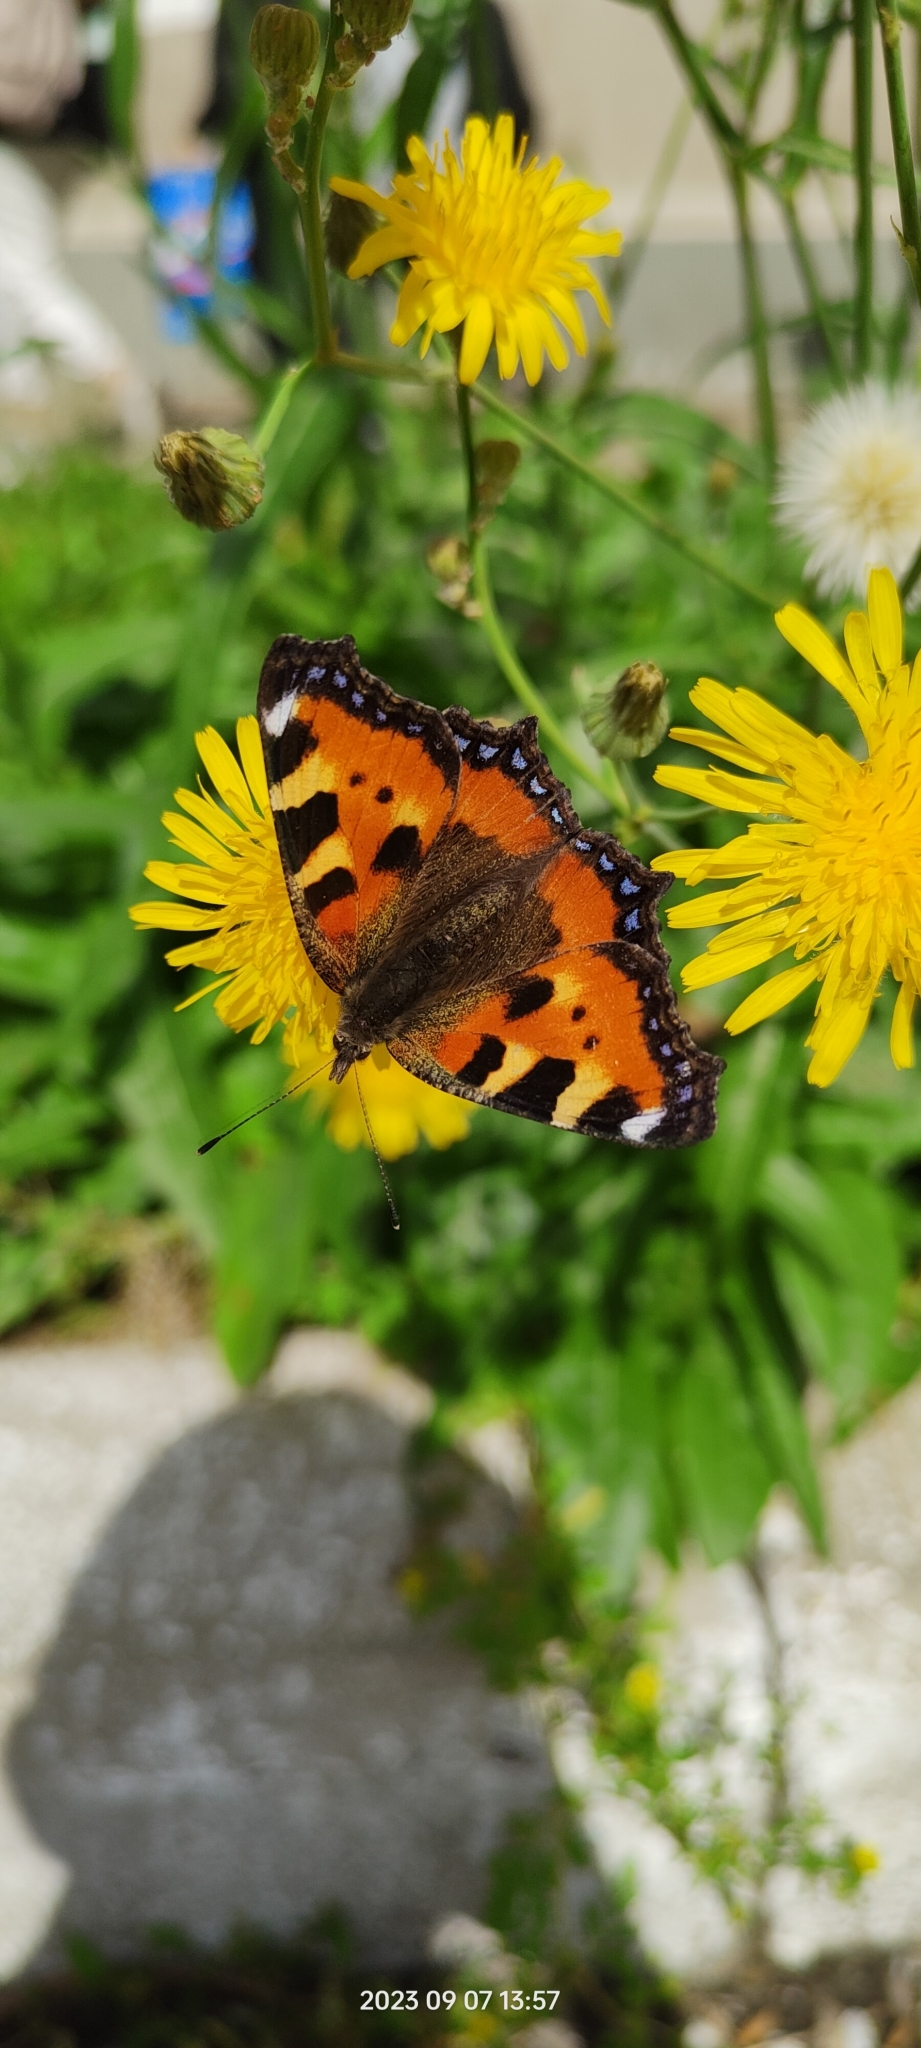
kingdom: Animalia
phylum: Arthropoda
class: Insecta
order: Lepidoptera
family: Nymphalidae
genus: Aglais
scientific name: Aglais urticae
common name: Small tortoiseshell
